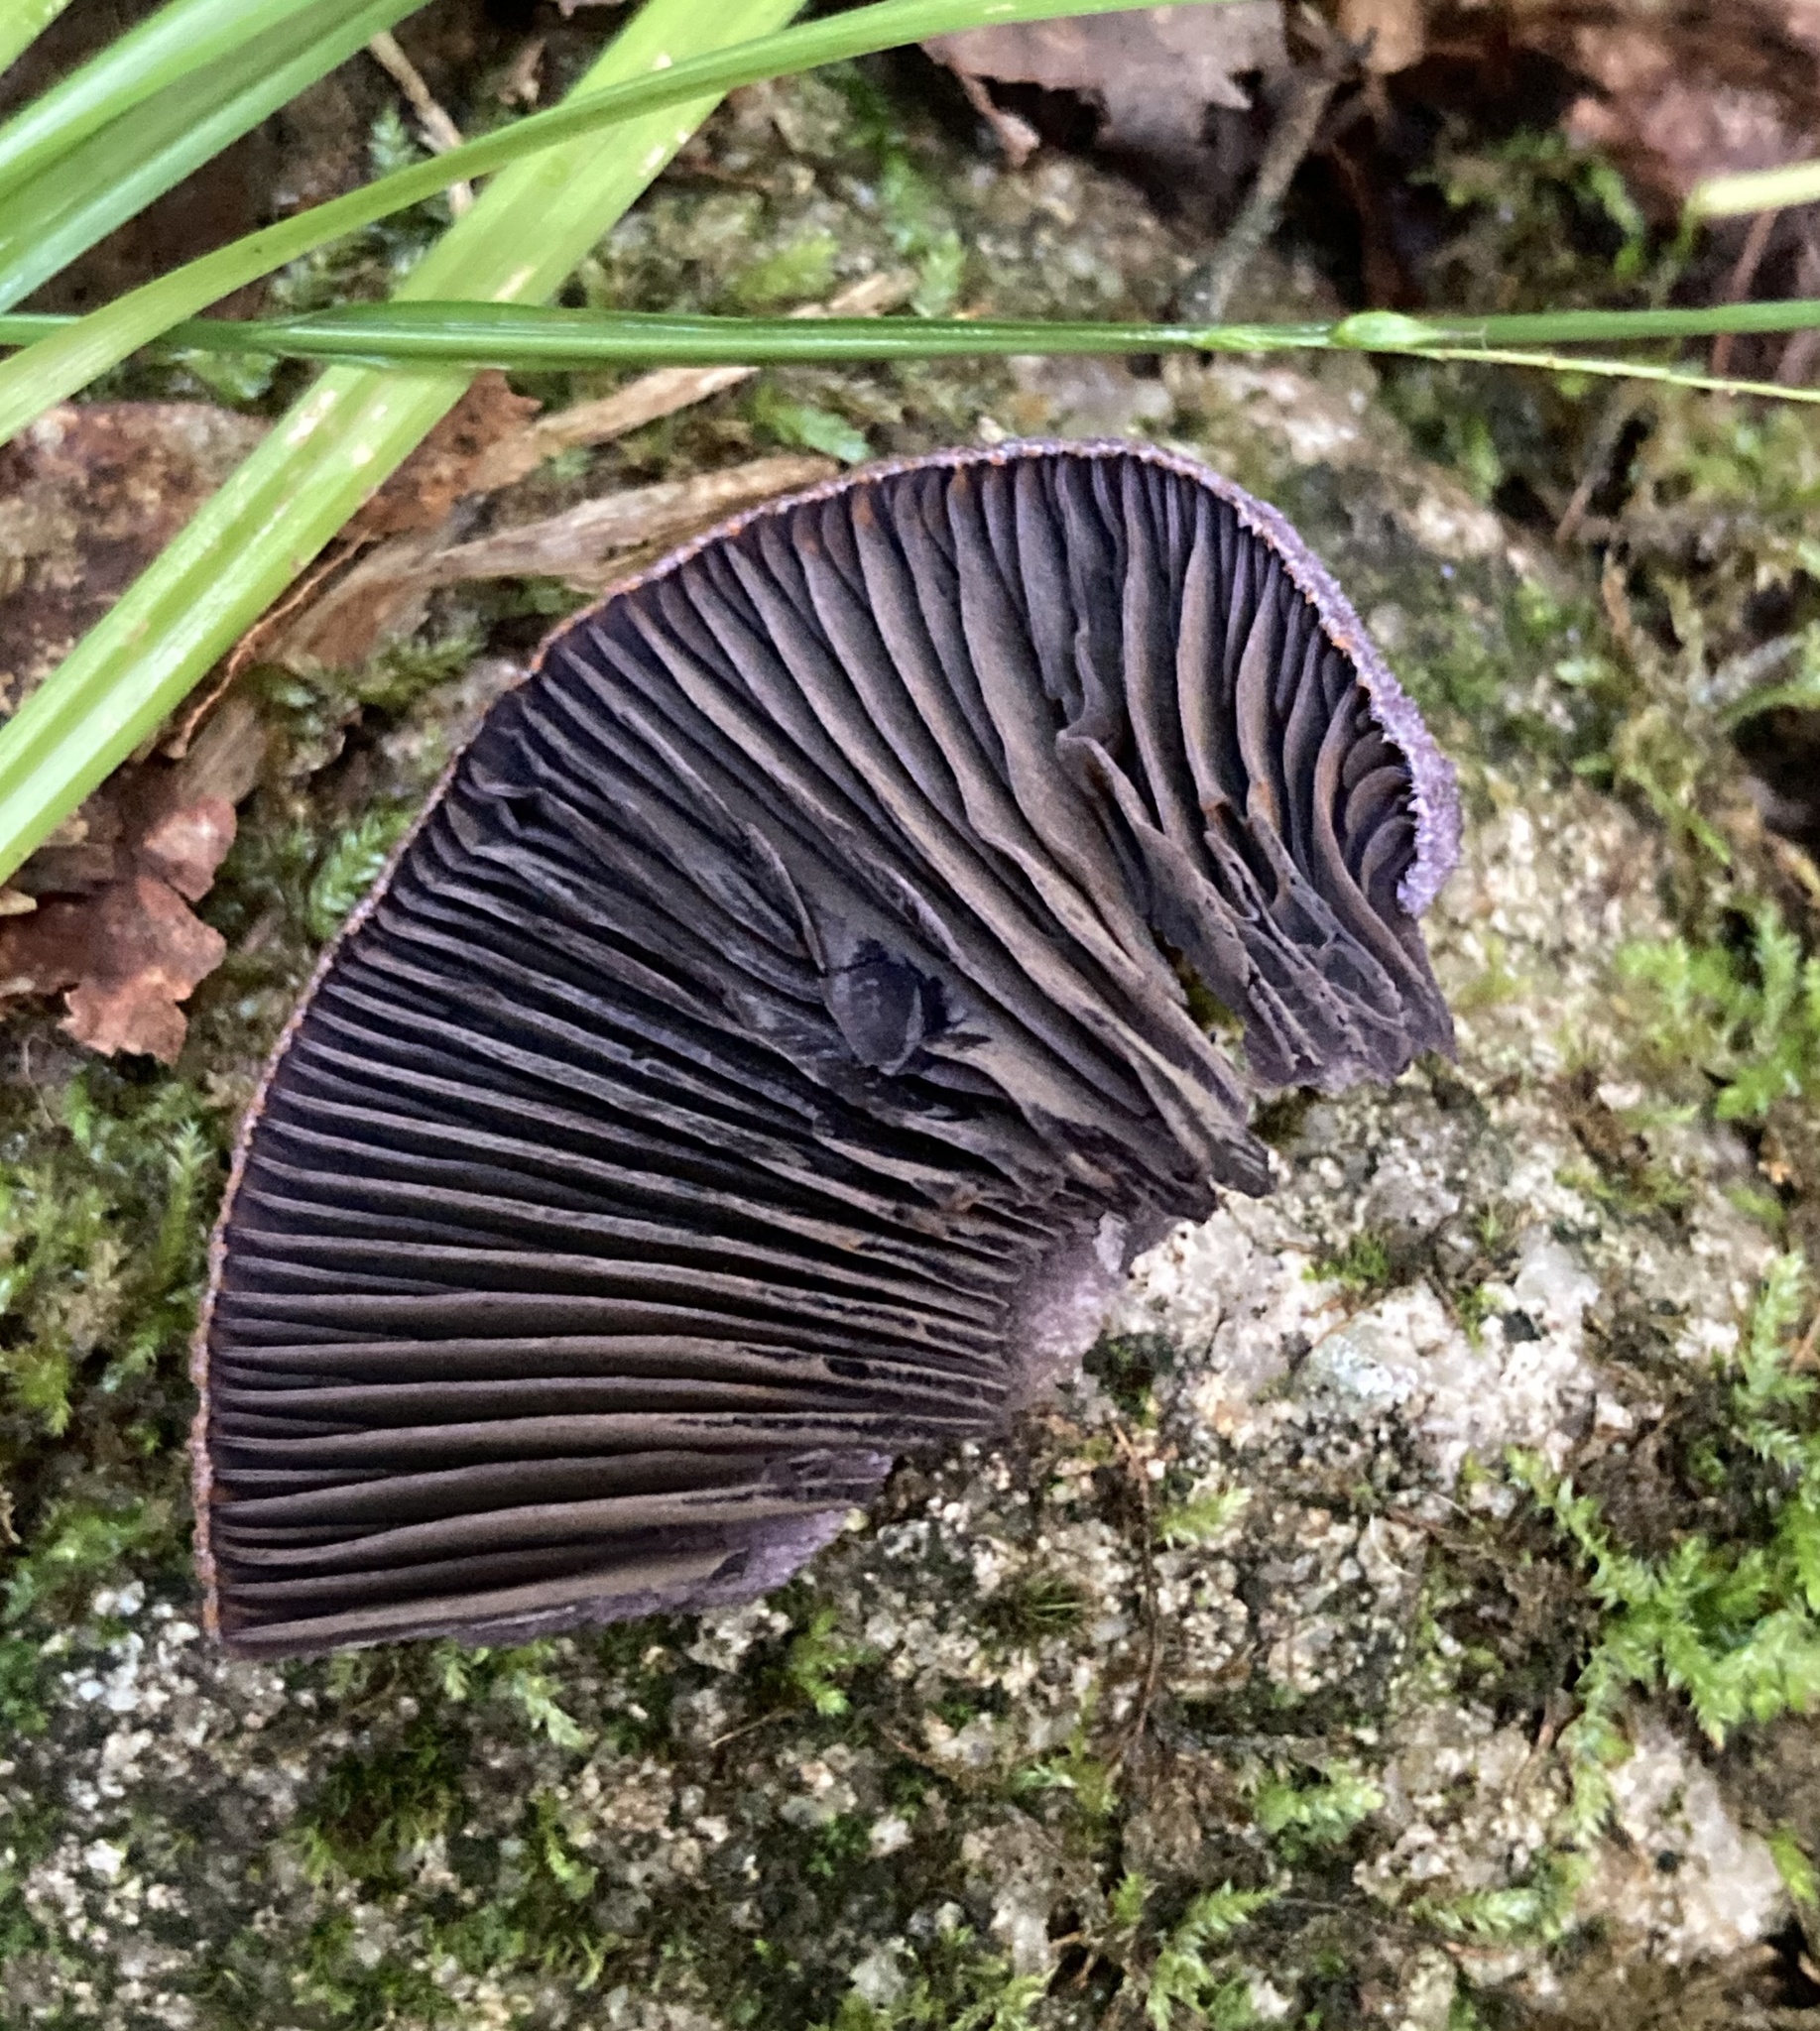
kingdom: Fungi
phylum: Basidiomycota
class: Agaricomycetes
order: Agaricales
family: Cortinariaceae
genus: Cortinarius
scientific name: Cortinarius violaceus
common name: Violet webcap
